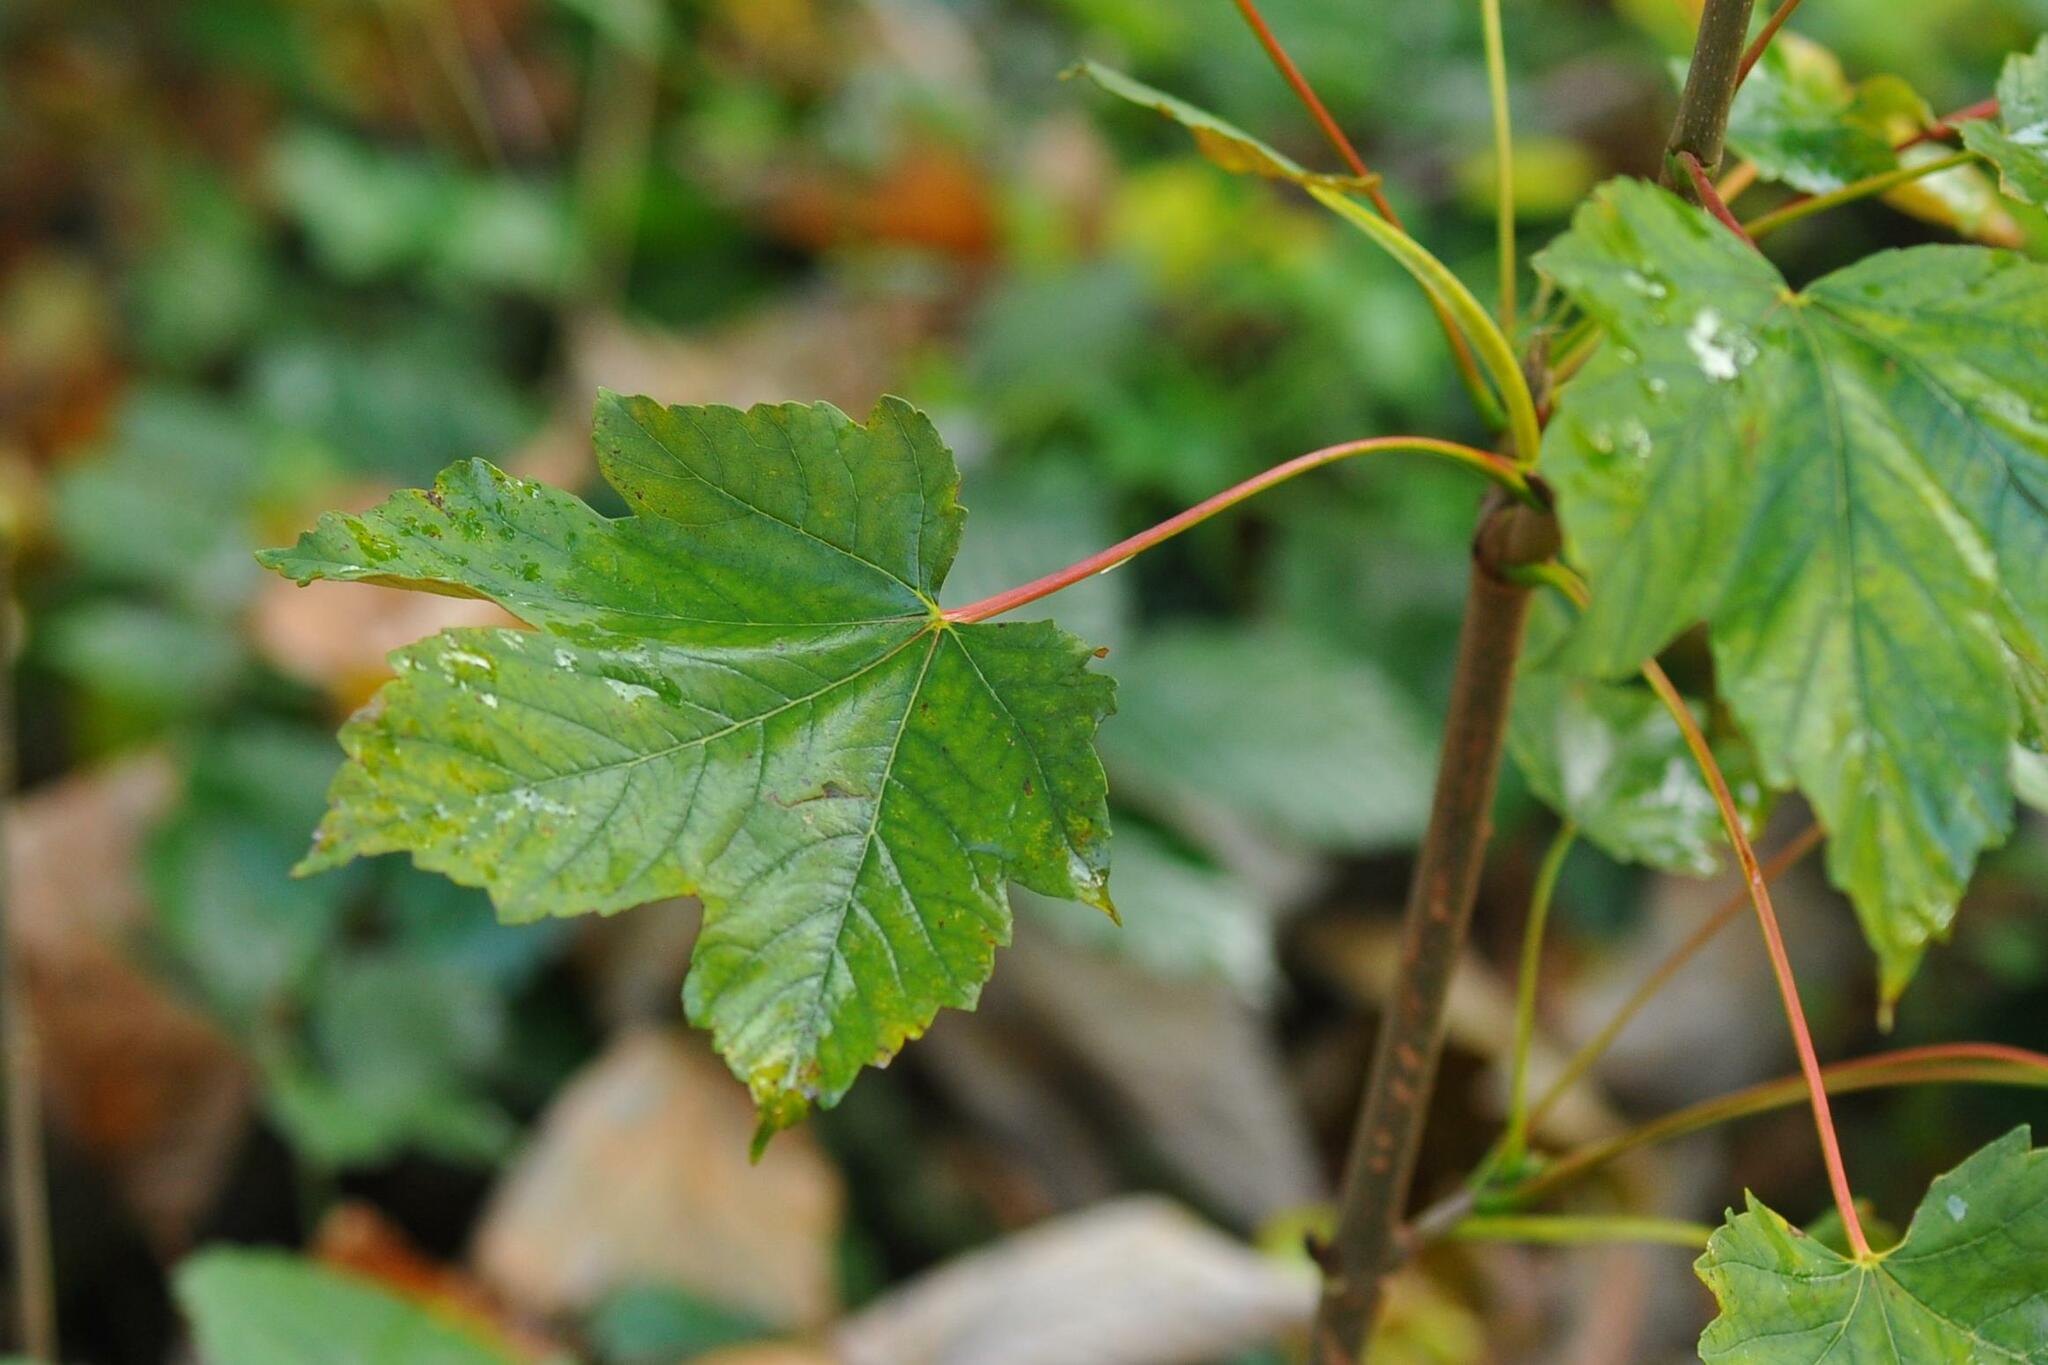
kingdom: Plantae
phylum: Tracheophyta
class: Magnoliopsida
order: Sapindales
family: Sapindaceae
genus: Acer
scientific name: Acer pseudoplatanus
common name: Sycamore
